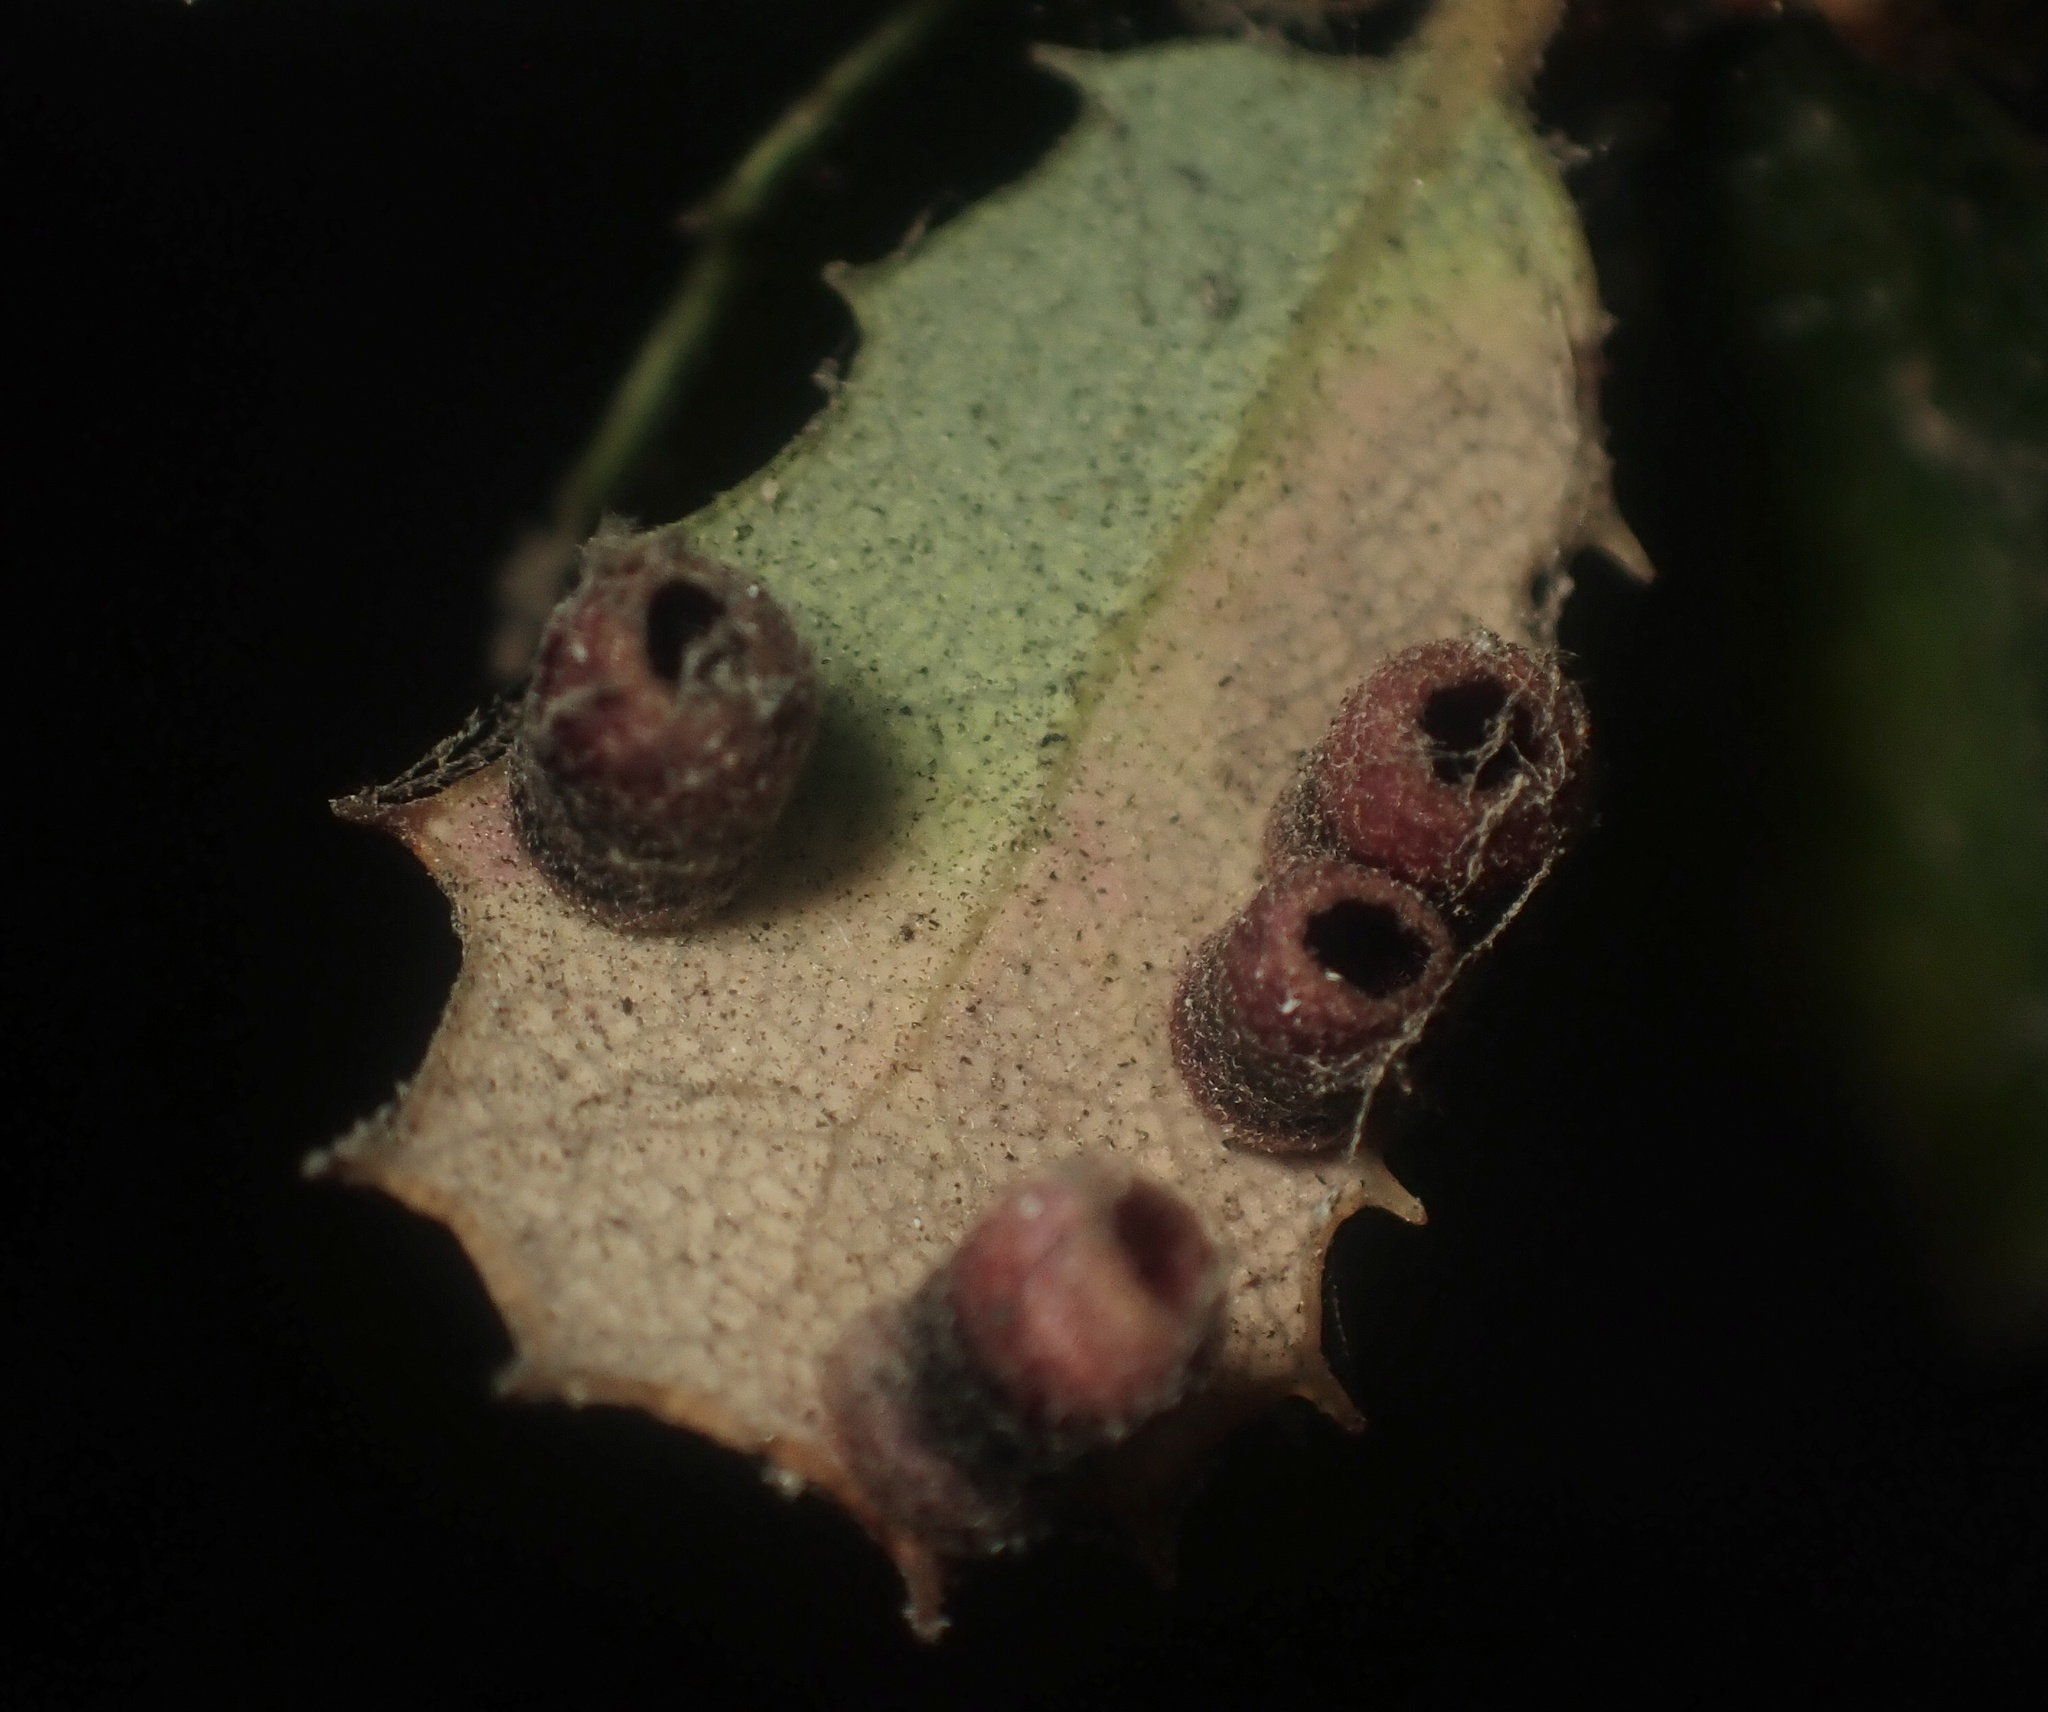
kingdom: Animalia
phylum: Arthropoda
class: Insecta
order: Hymenoptera
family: Cynipidae
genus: Phylloteras
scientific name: Phylloteras
